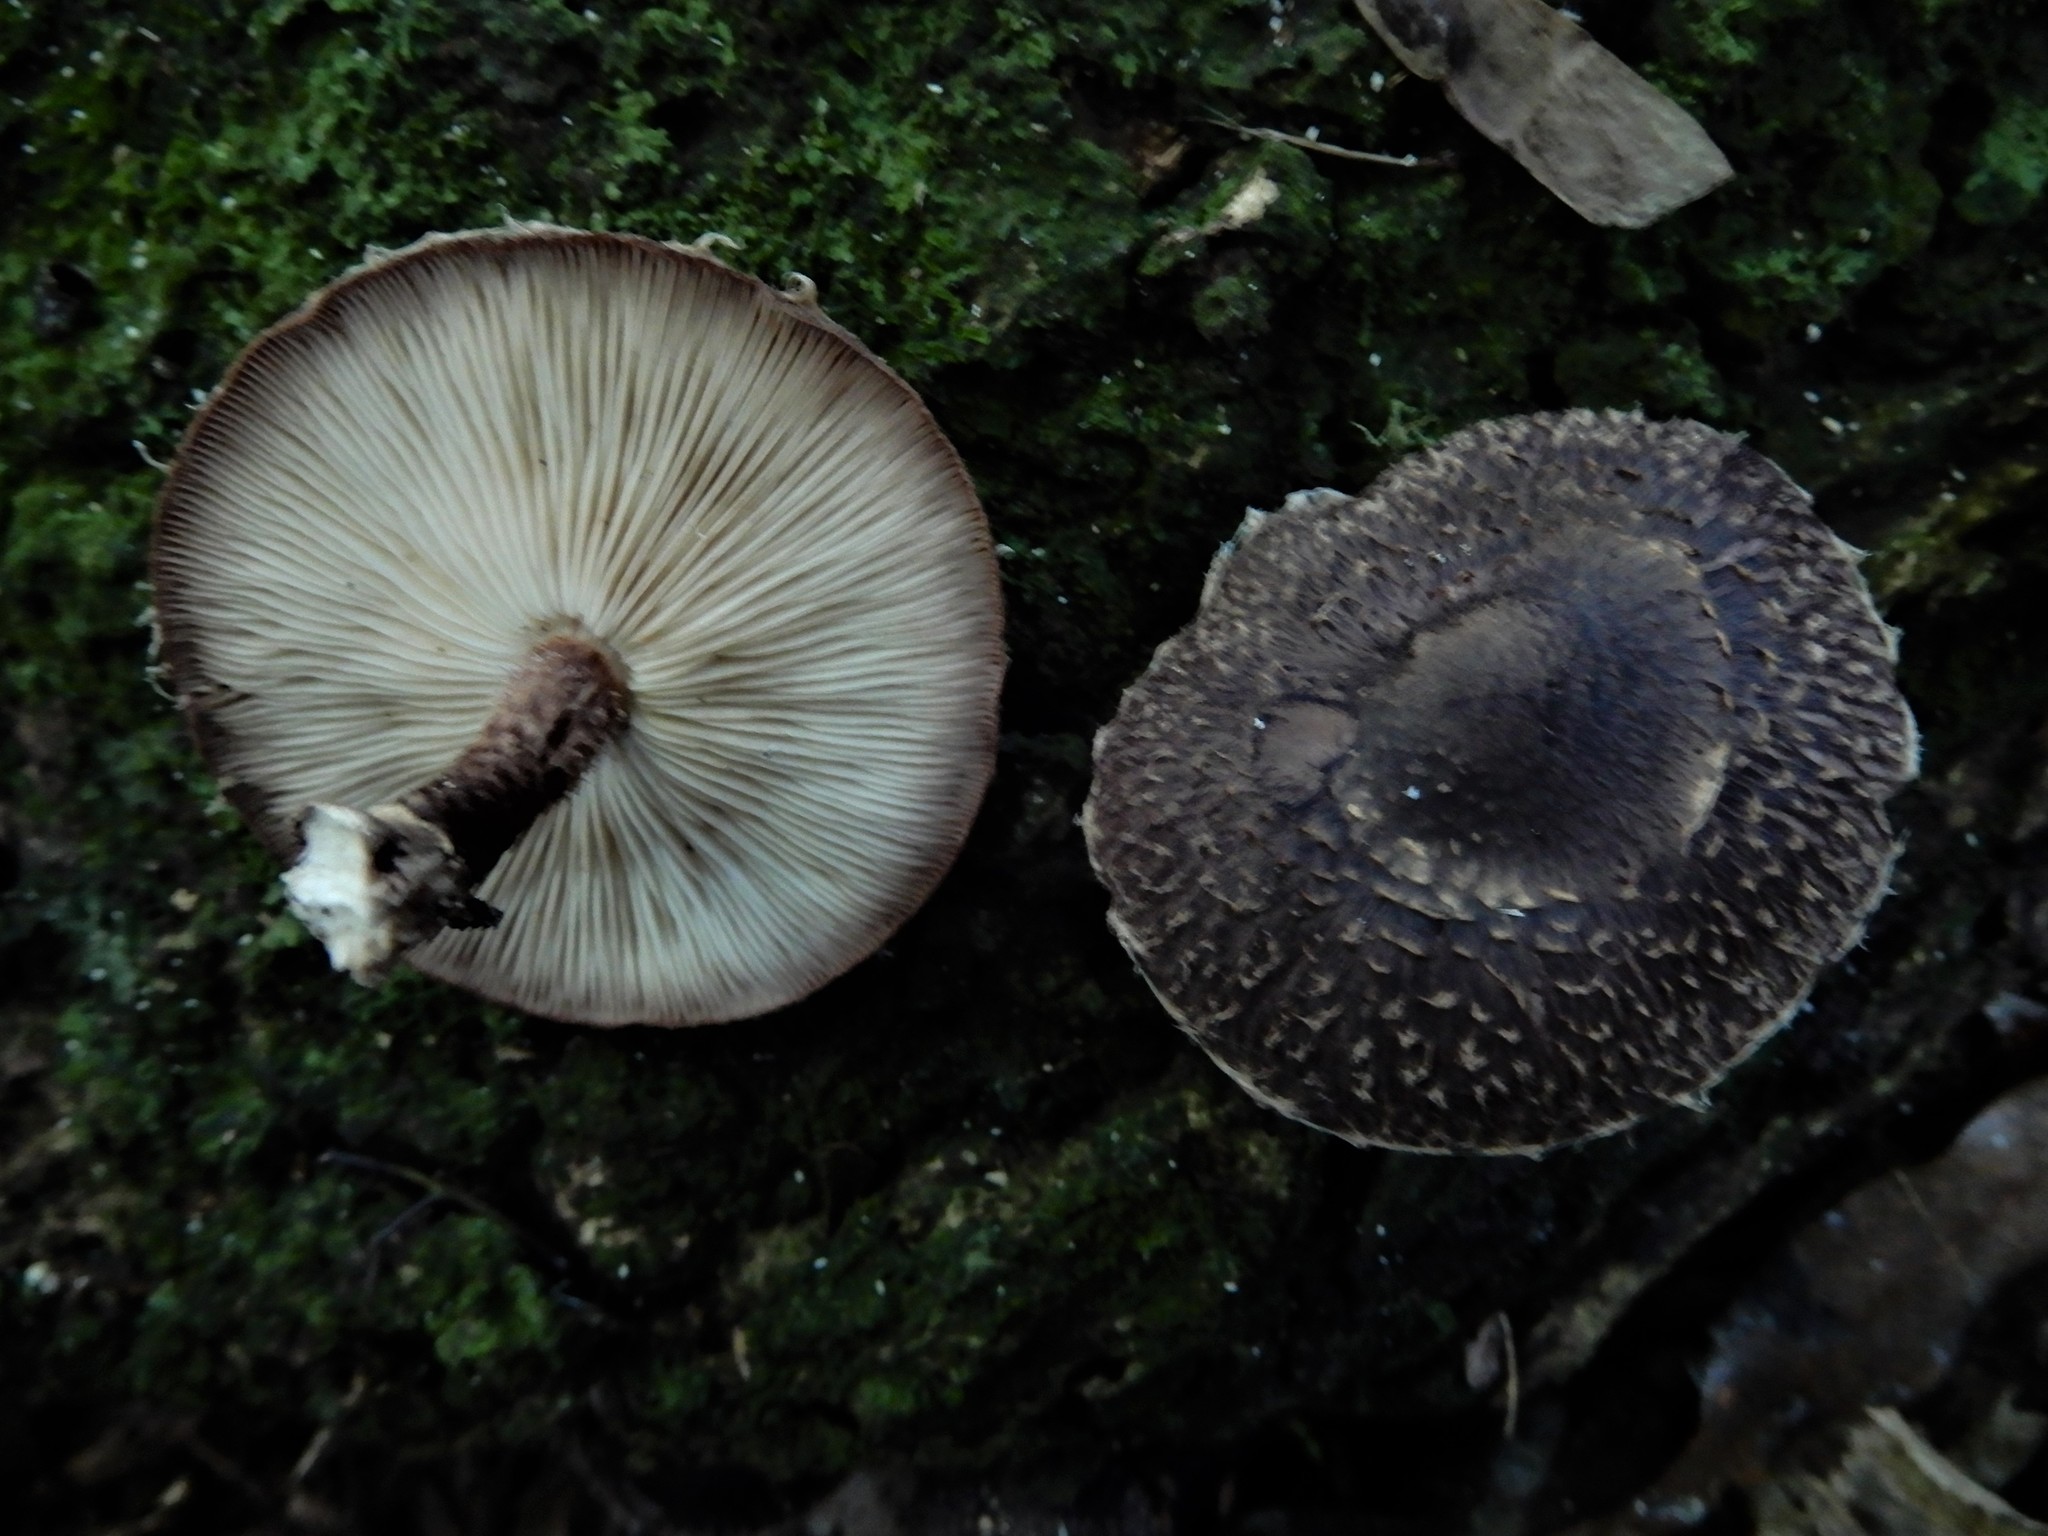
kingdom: Fungi
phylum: Basidiomycota
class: Agaricomycetes
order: Agaricales
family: Omphalotaceae
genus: Lentinula
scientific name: Lentinula novae-zelandiae
